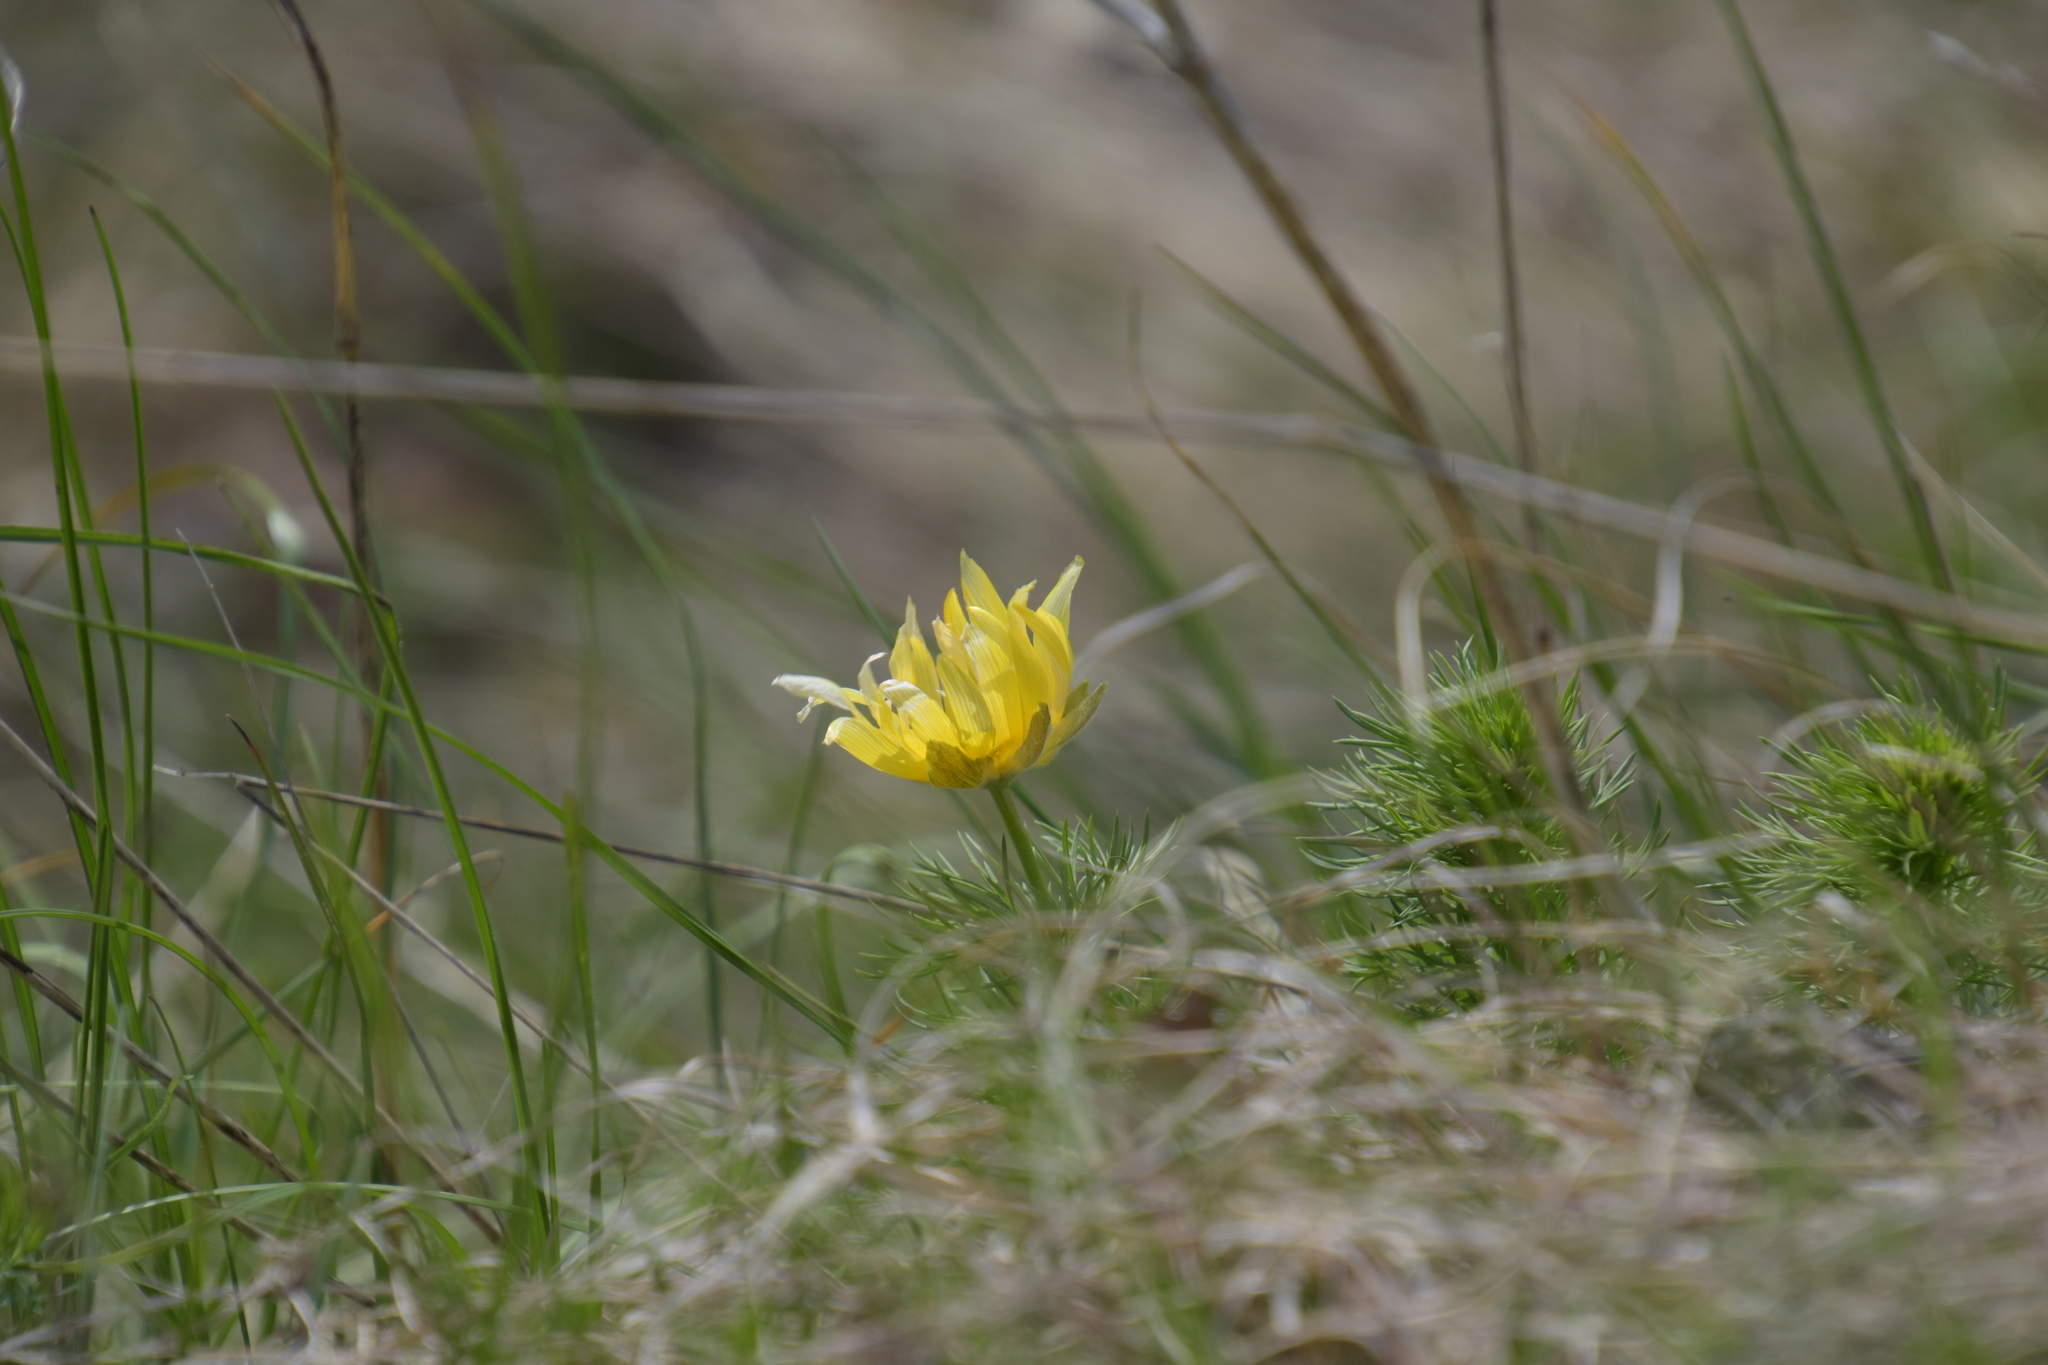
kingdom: Plantae
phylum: Tracheophyta
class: Magnoliopsida
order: Ranunculales
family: Ranunculaceae
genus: Adonis
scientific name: Adonis vernalis
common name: Yellow pheasants-eye
